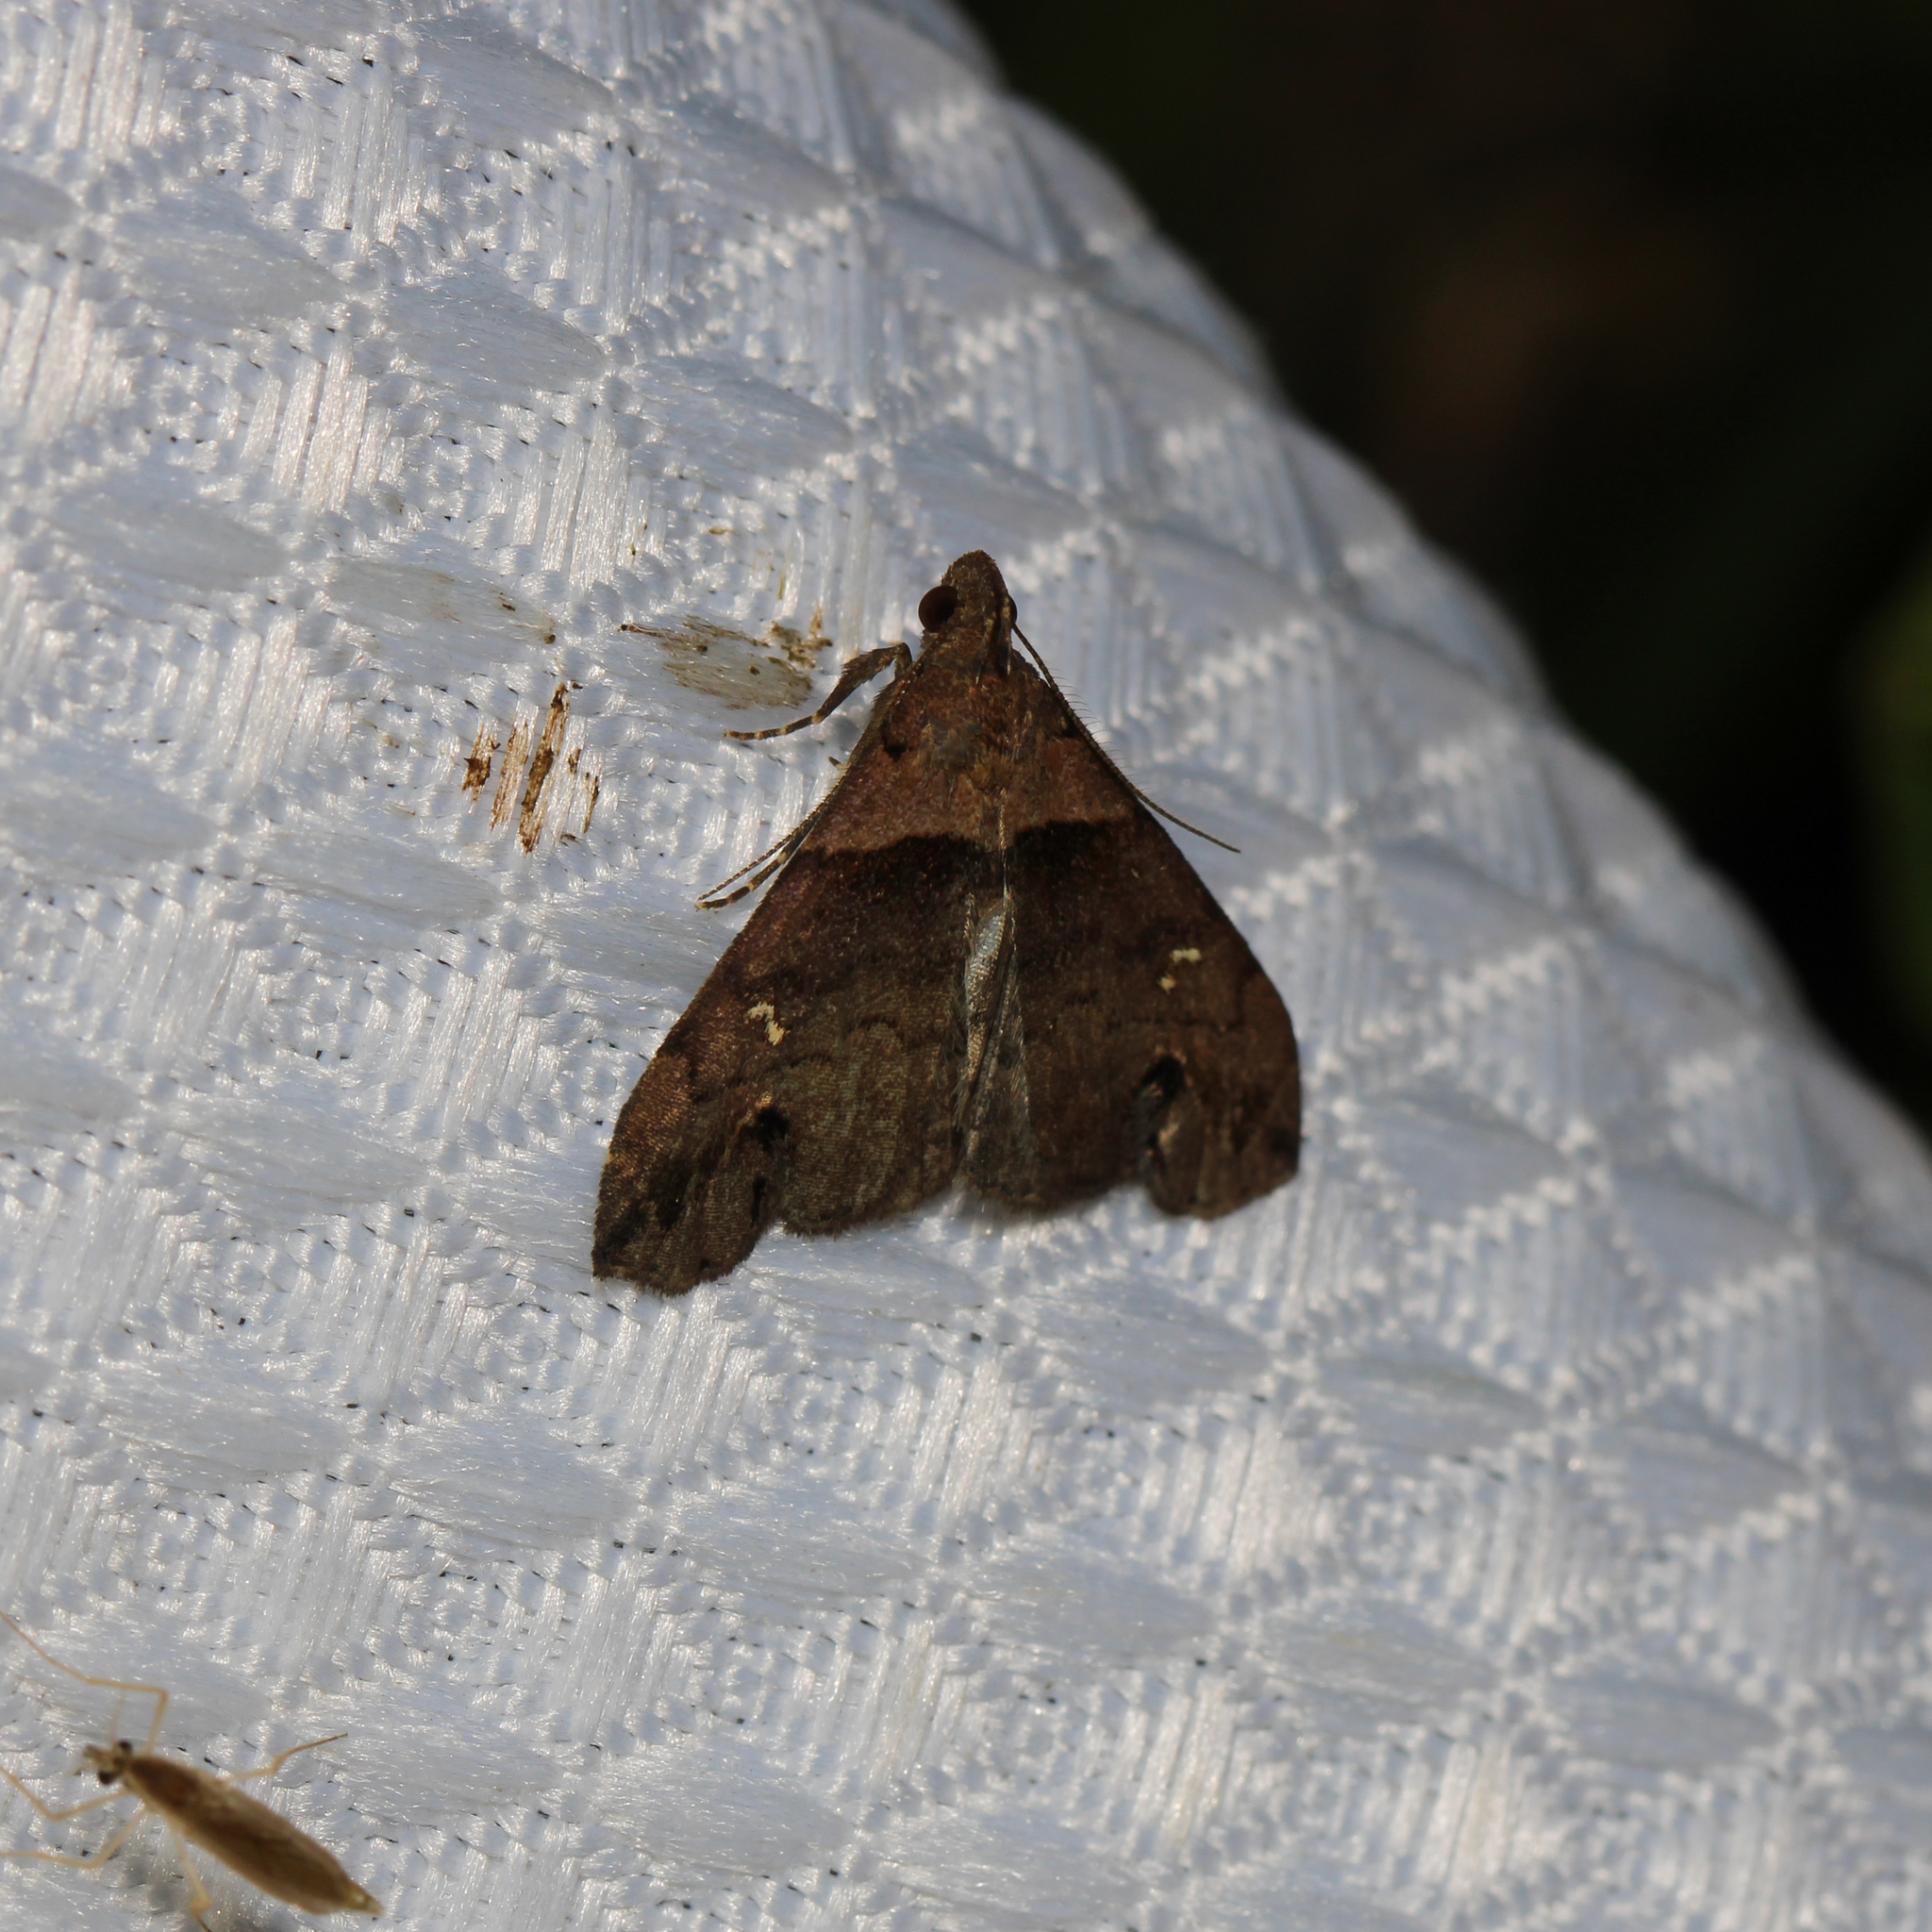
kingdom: Animalia
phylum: Arthropoda
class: Insecta
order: Lepidoptera
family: Erebidae
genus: Lascoria
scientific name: Lascoria ambigualis
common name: Ambiguous moth
